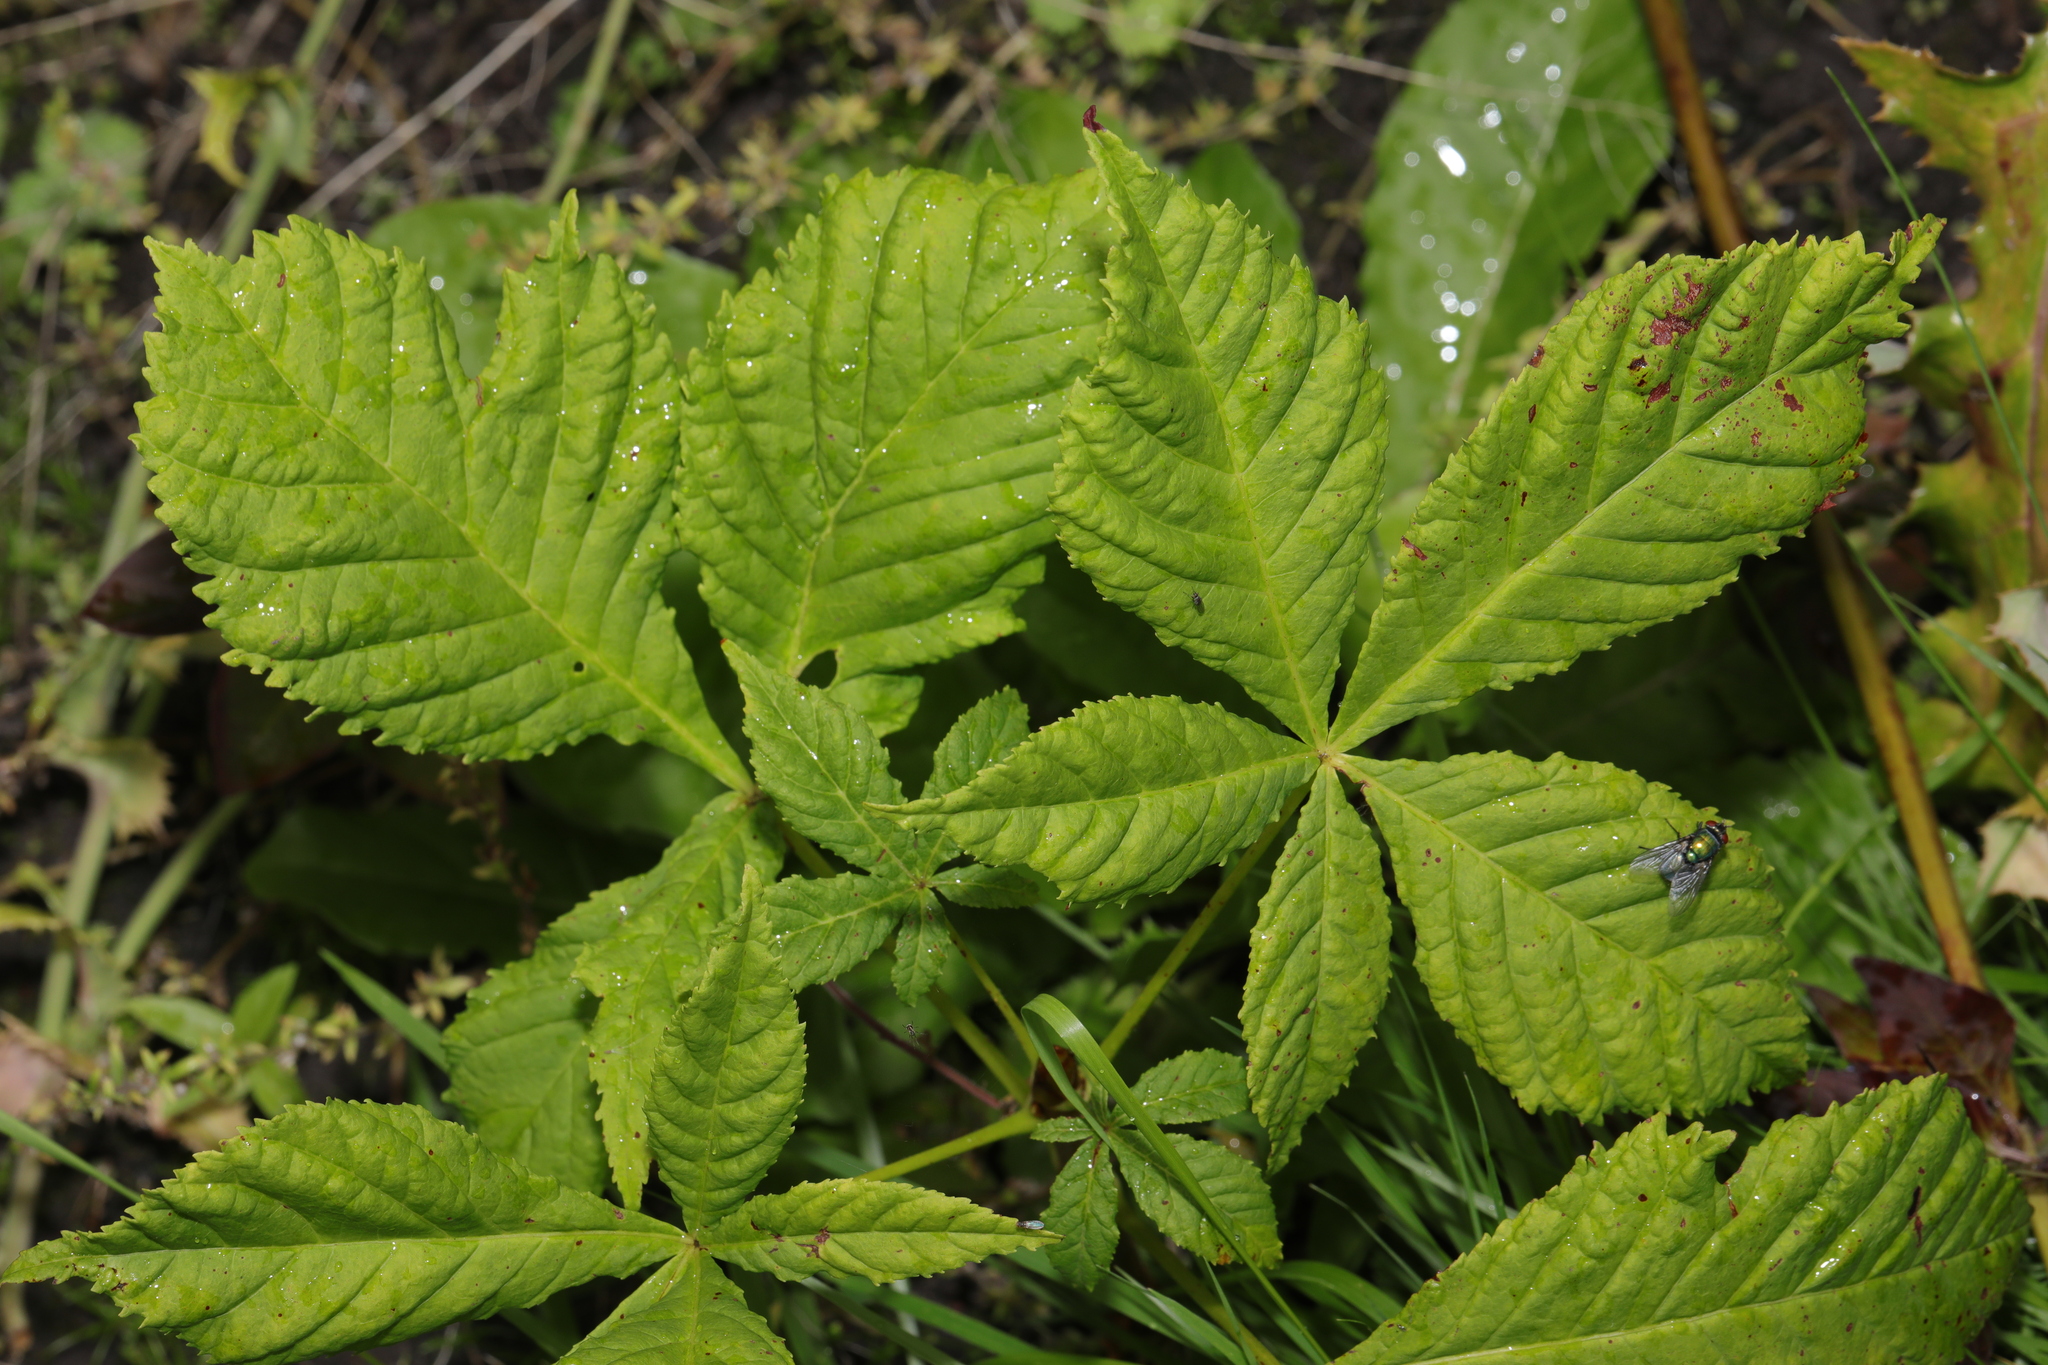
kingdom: Plantae
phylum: Tracheophyta
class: Magnoliopsida
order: Sapindales
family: Sapindaceae
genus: Aesculus
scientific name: Aesculus hippocastanum
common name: Horse-chestnut
